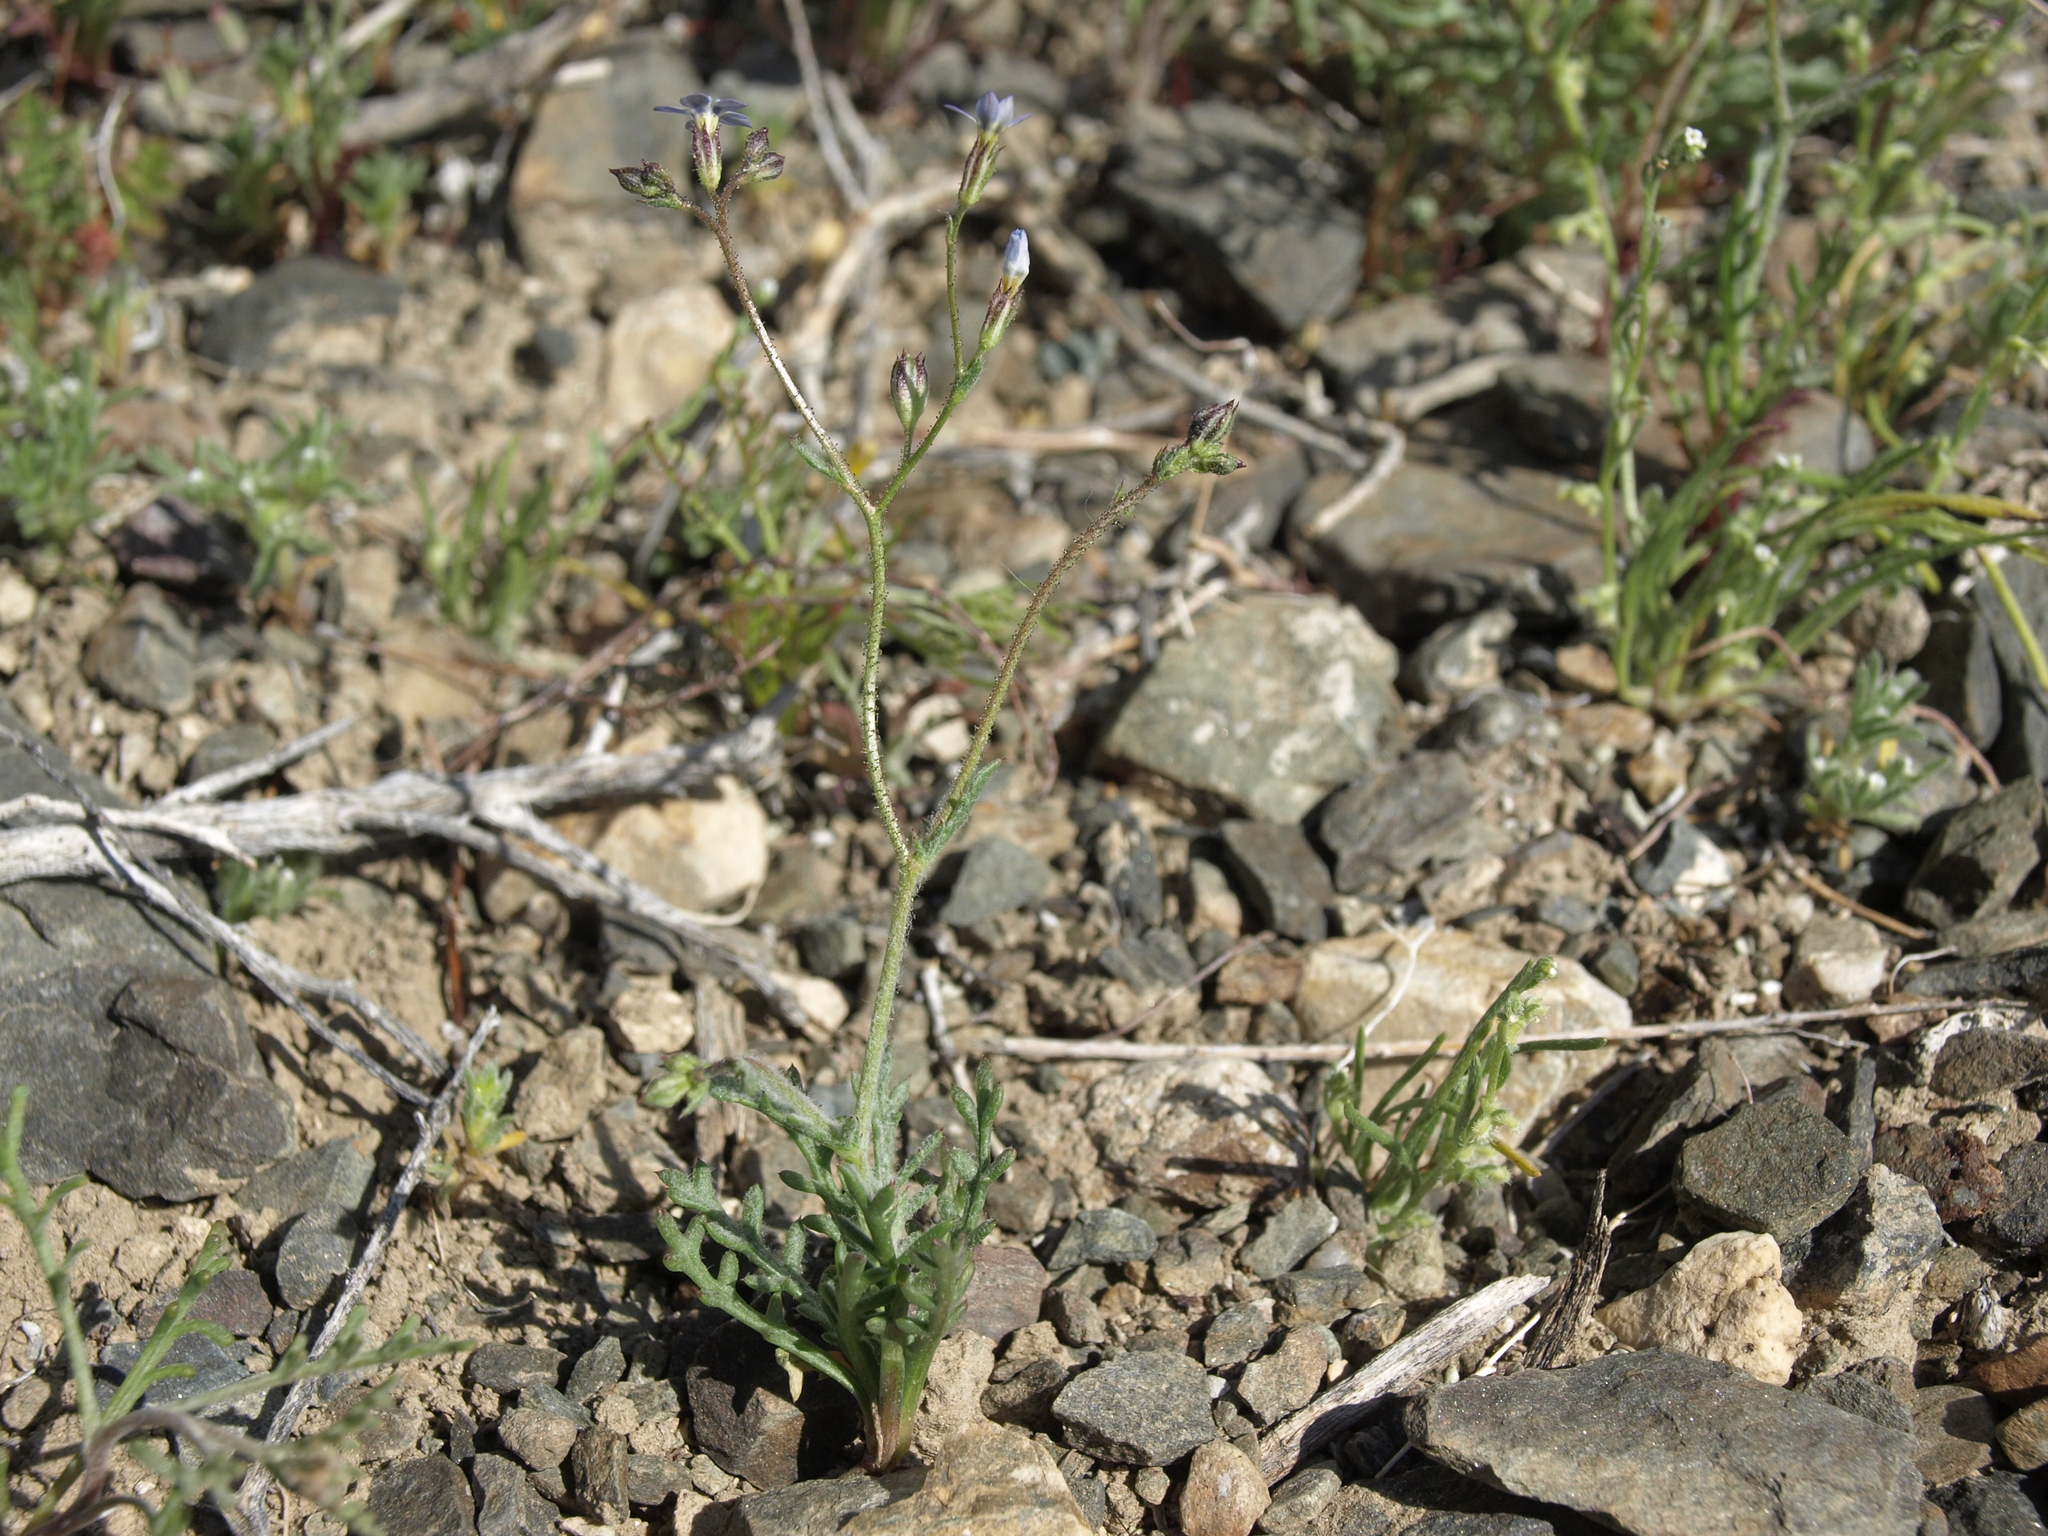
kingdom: Plantae
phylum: Tracheophyta
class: Magnoliopsida
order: Ericales
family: Polemoniaceae
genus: Gilia
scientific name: Gilia transmontana
